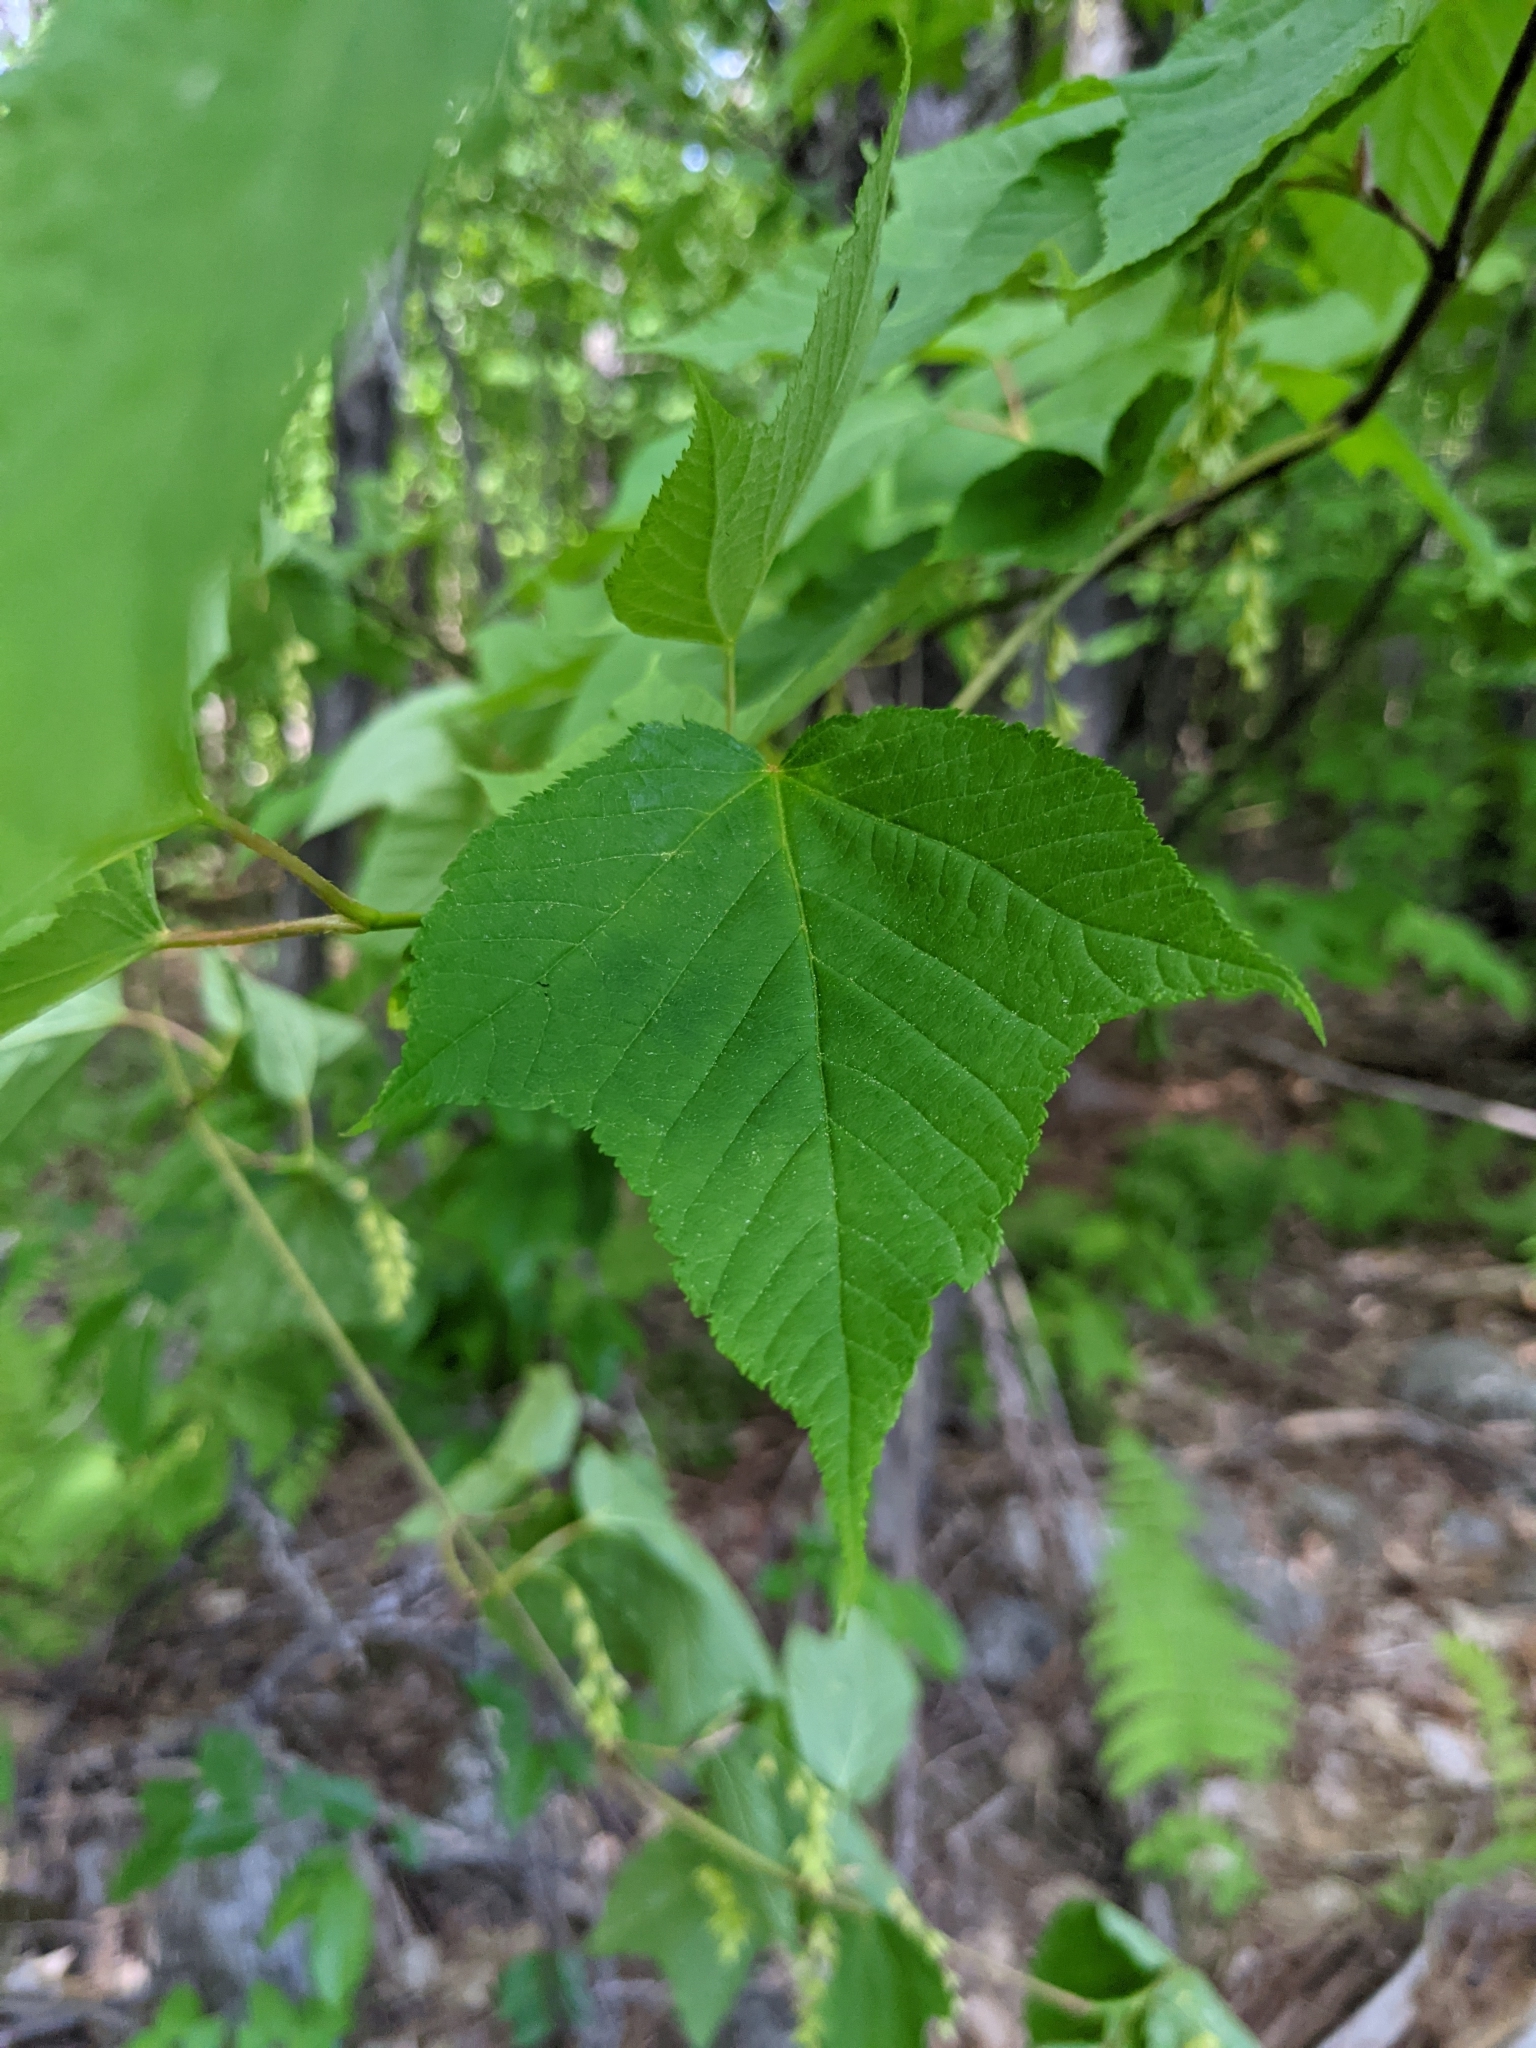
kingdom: Plantae
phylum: Tracheophyta
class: Magnoliopsida
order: Sapindales
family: Sapindaceae
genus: Acer
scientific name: Acer pensylvanicum
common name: Moosewood
